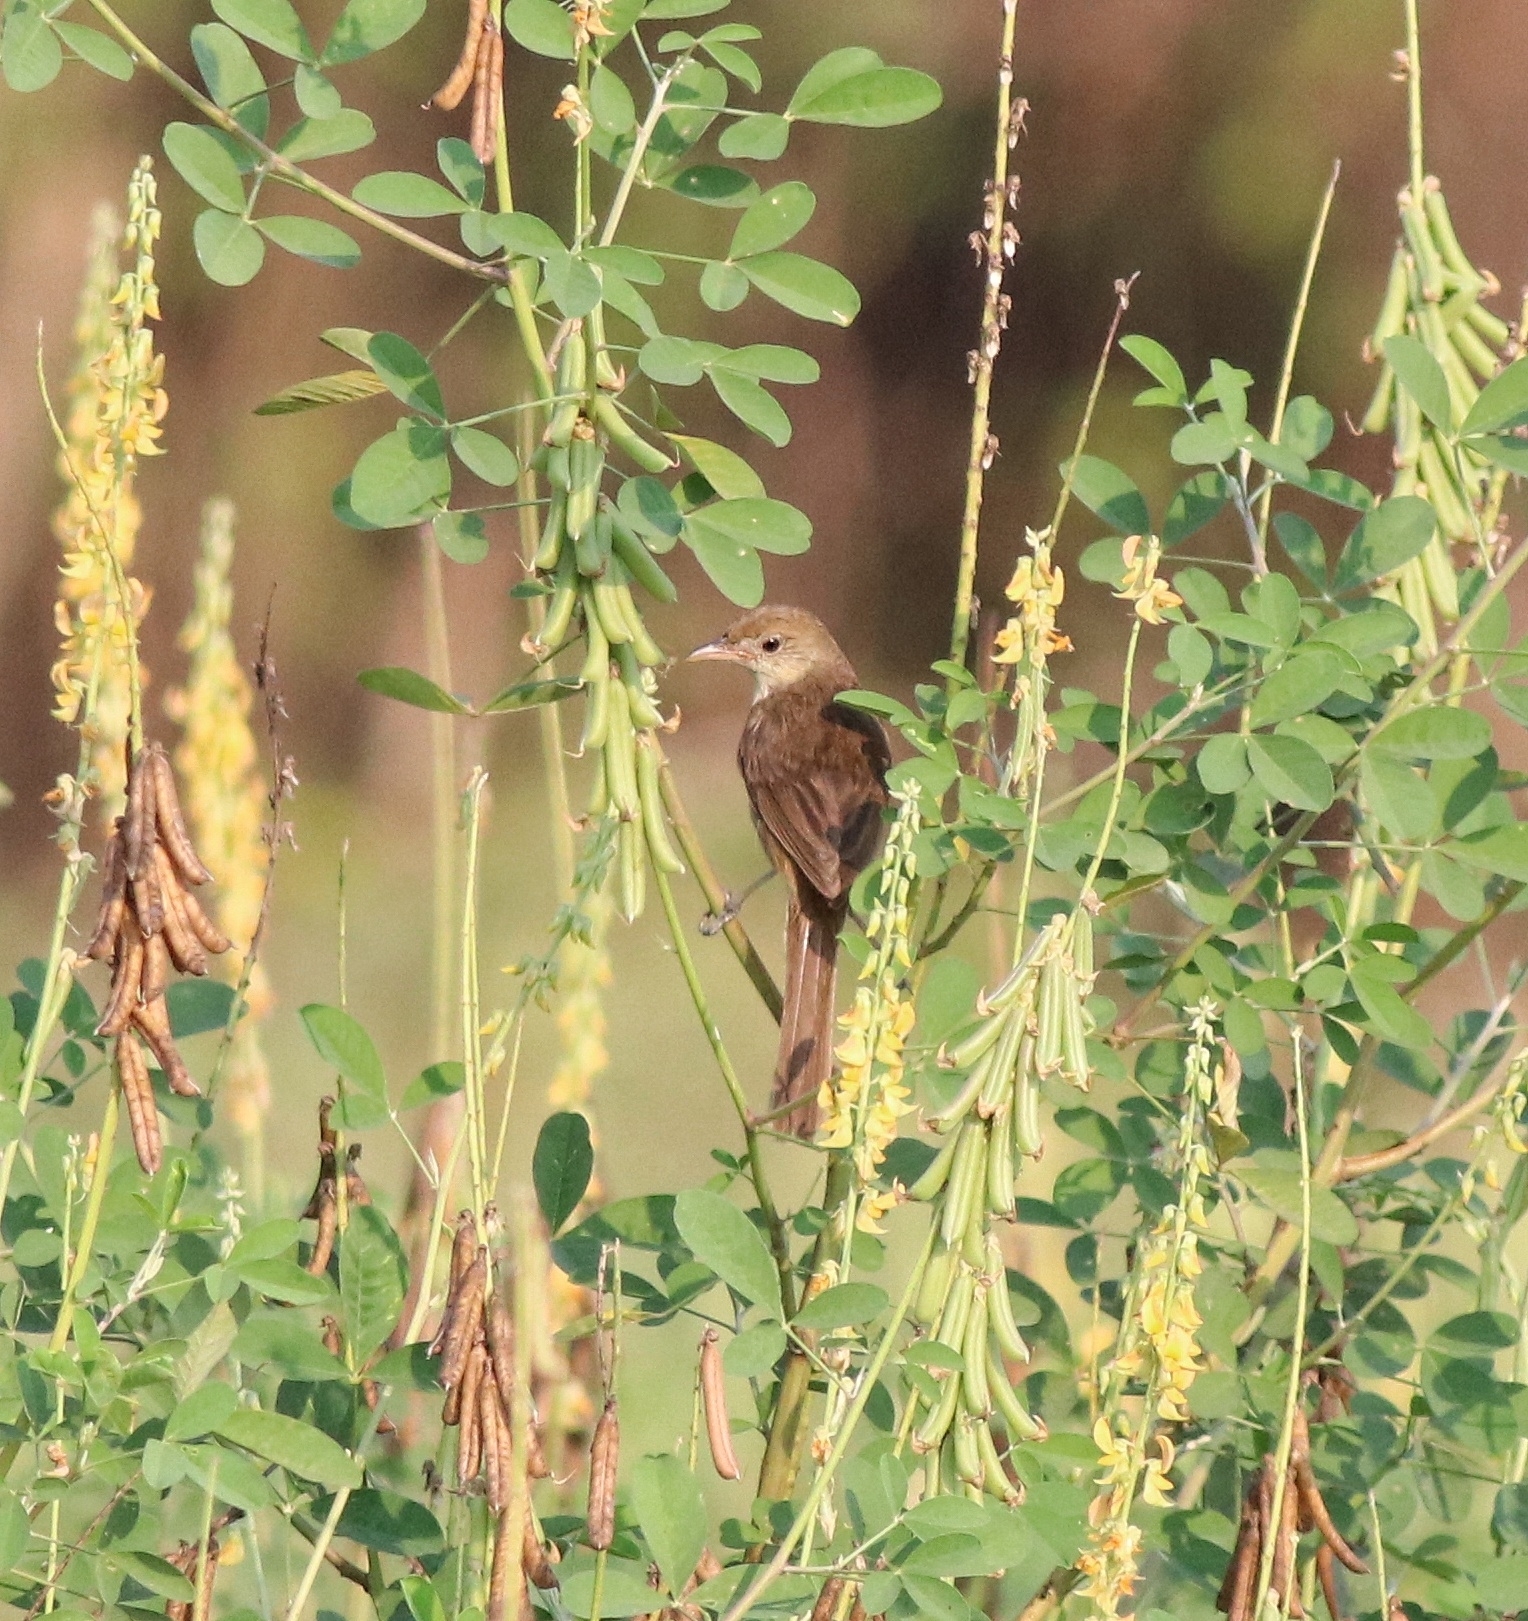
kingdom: Animalia
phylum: Chordata
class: Aves
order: Passeriformes
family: Acrocephalidae
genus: Iduna
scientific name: Iduna aedon
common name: Thick-billed warbler
